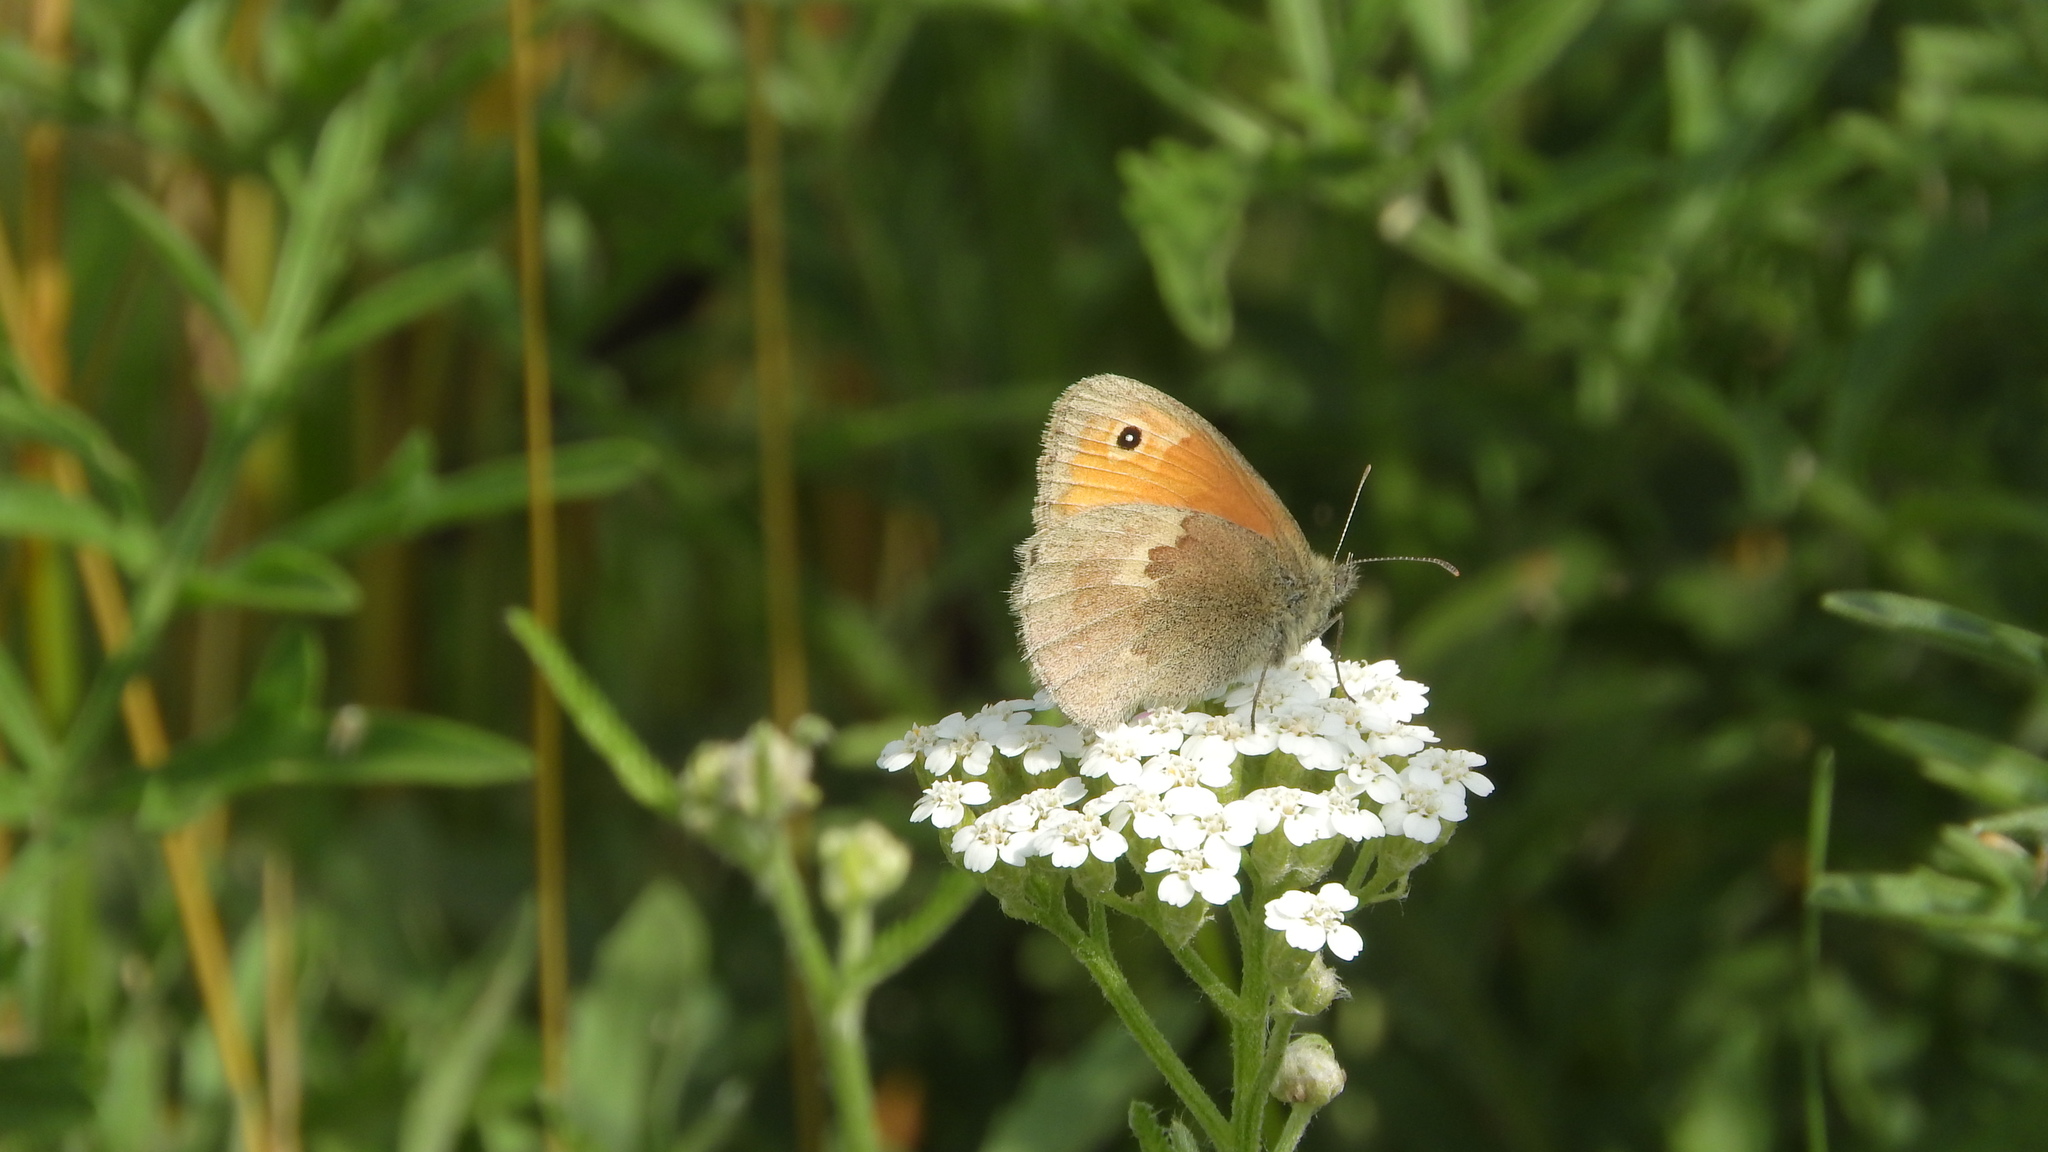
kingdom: Animalia
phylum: Arthropoda
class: Insecta
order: Lepidoptera
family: Nymphalidae
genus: Coenonympha
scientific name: Coenonympha pamphilus
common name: Small heath
